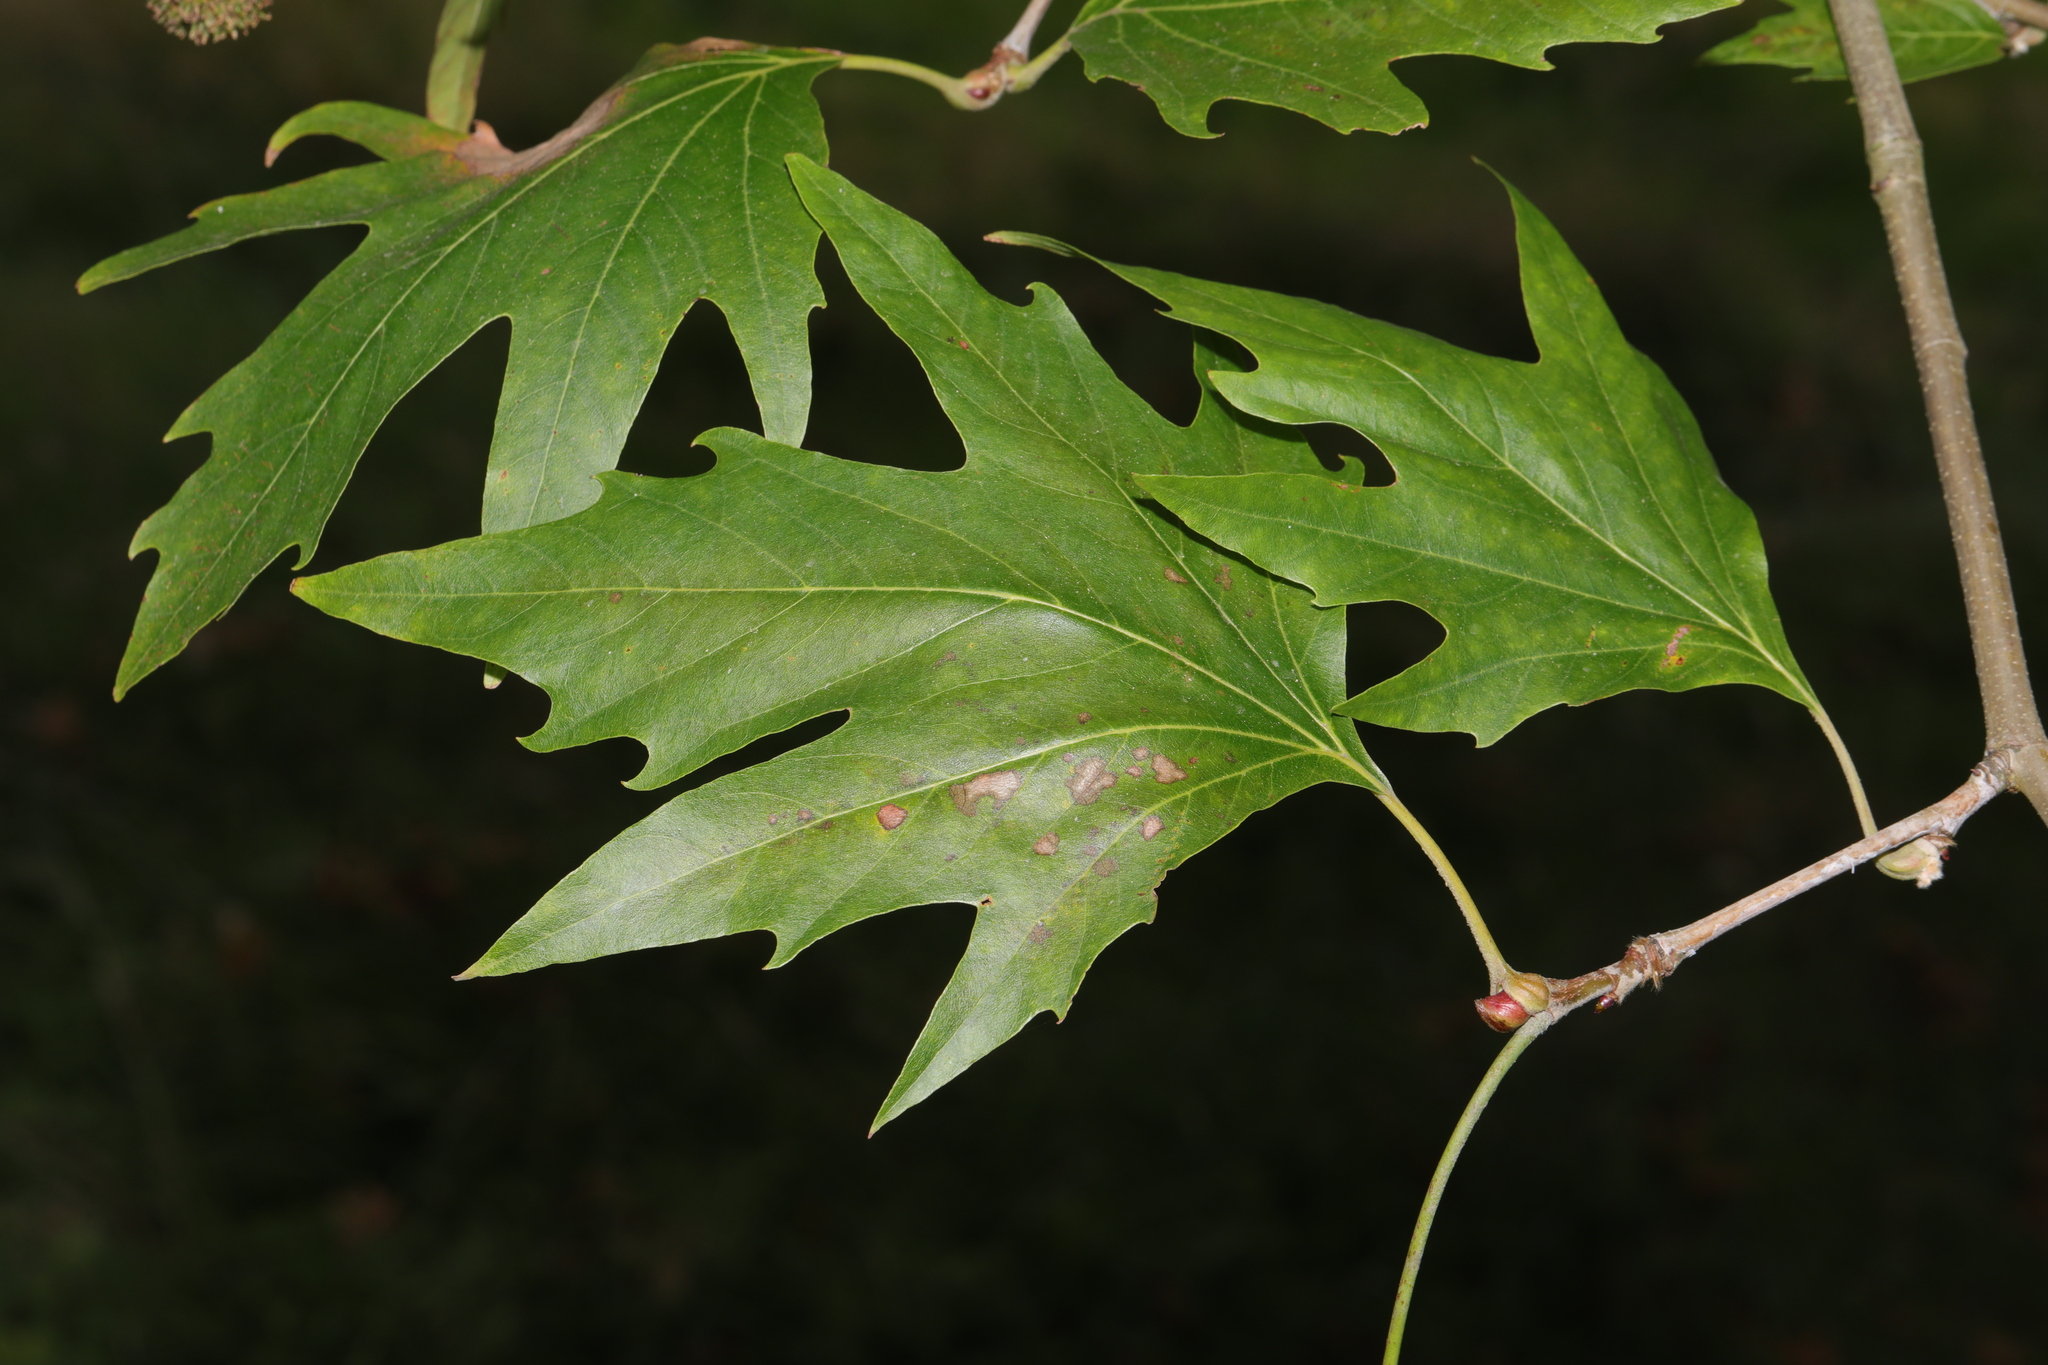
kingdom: Plantae
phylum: Tracheophyta
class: Magnoliopsida
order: Proteales
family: Platanaceae
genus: Platanus
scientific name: Platanus orientalis
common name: Oriental plane
